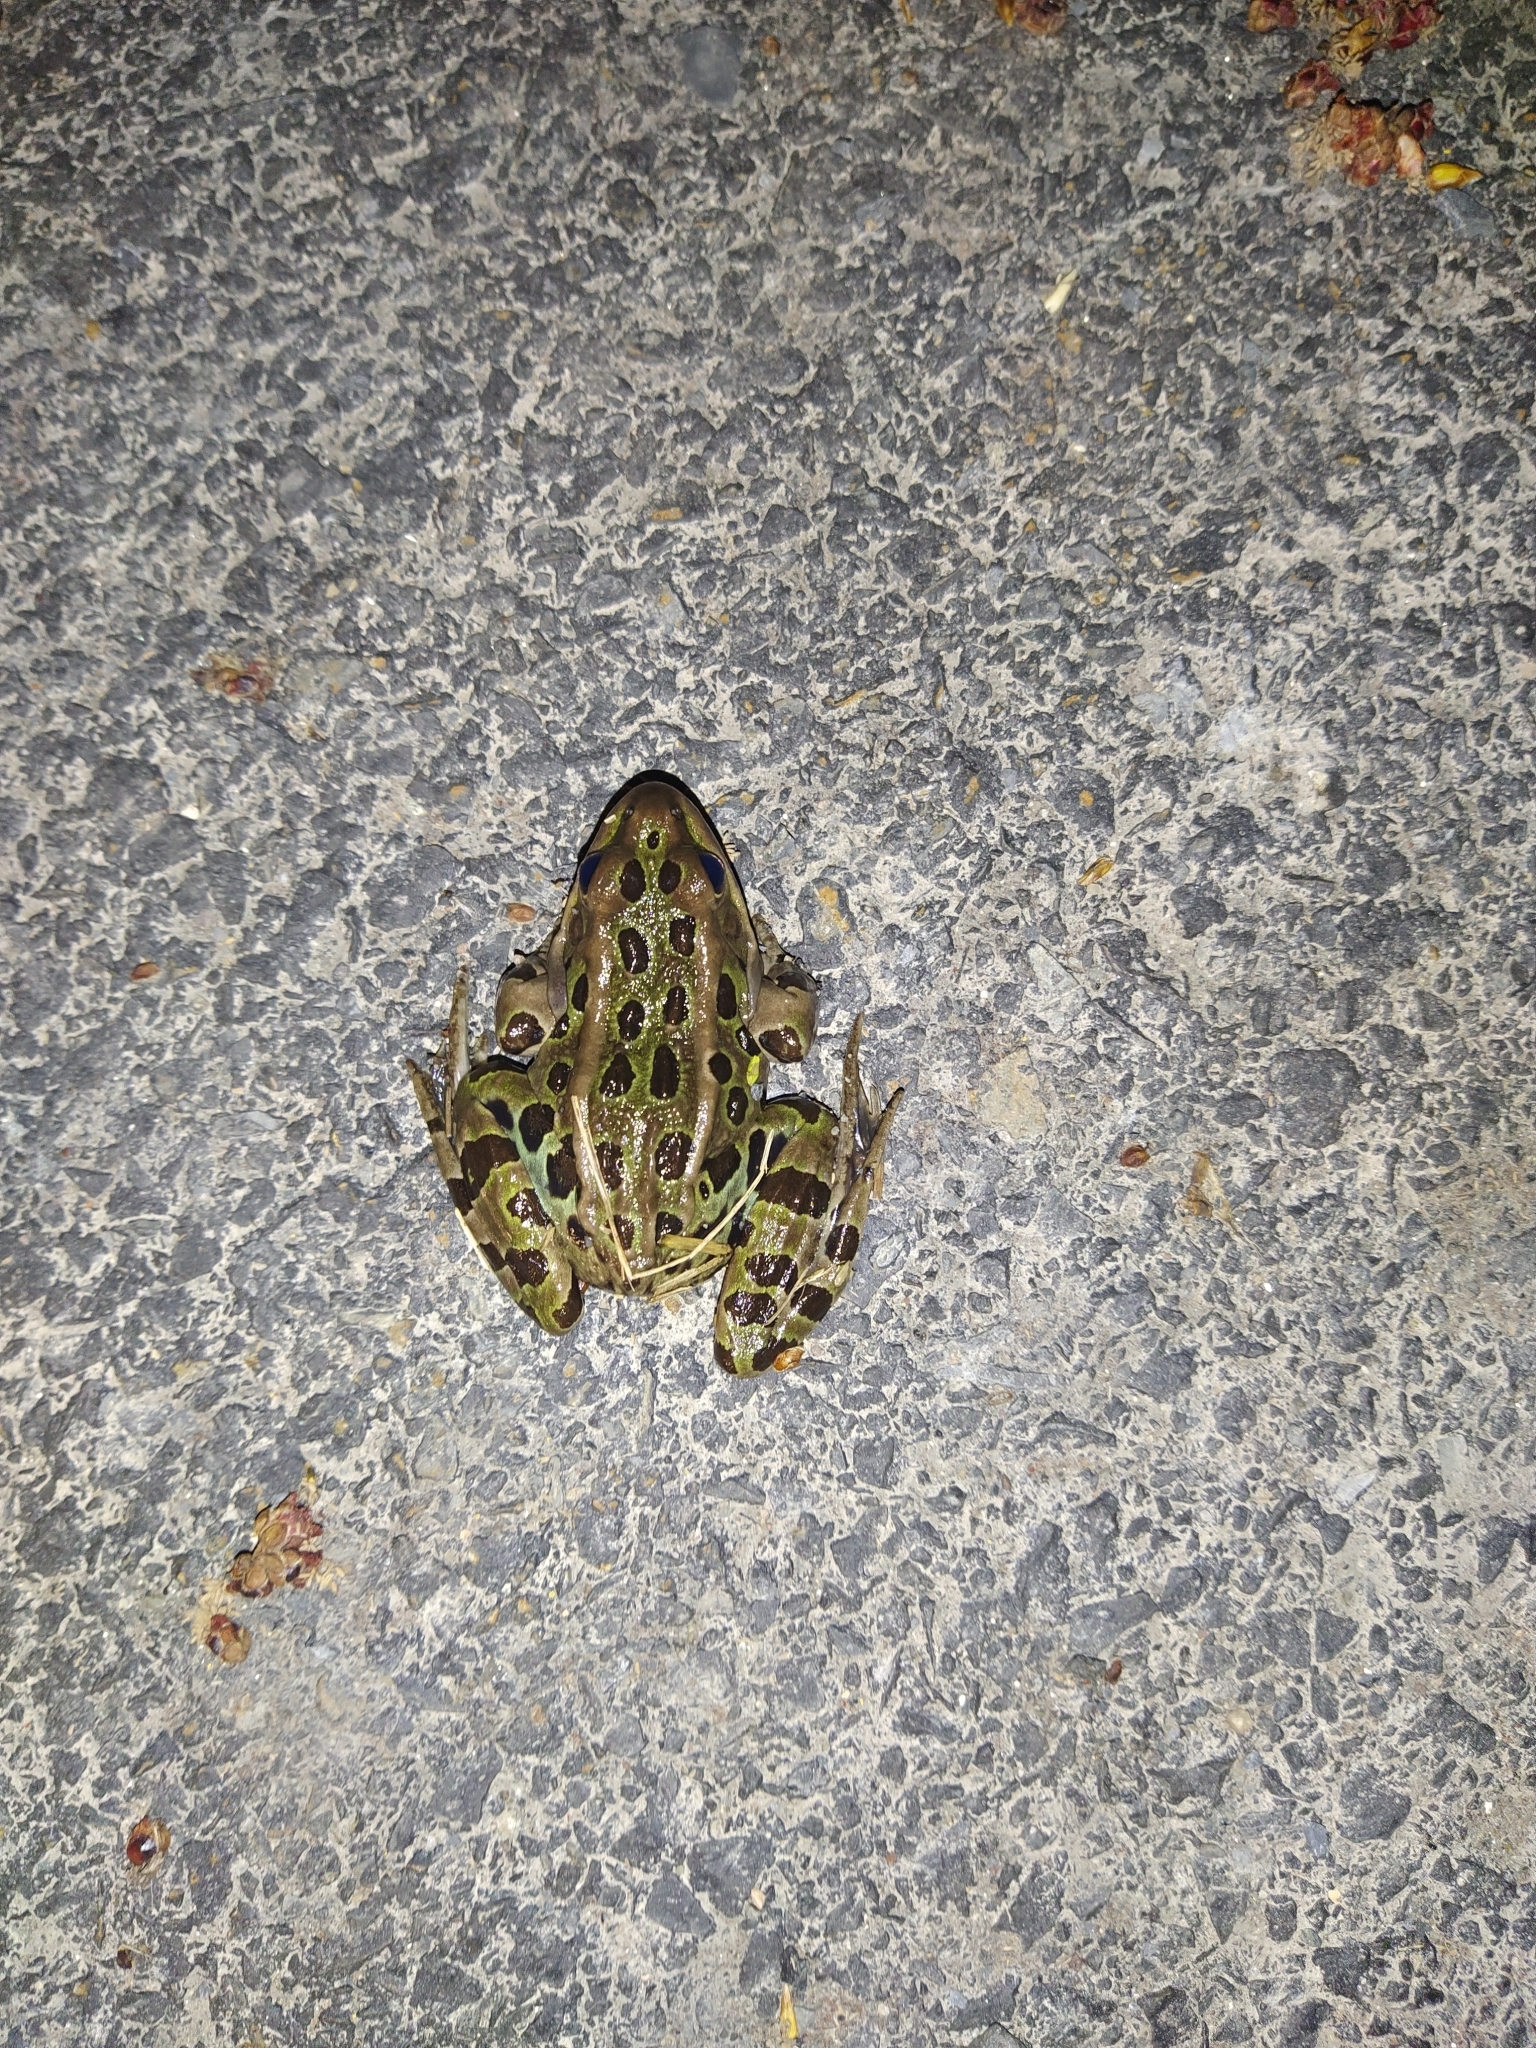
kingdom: Animalia
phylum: Chordata
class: Amphibia
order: Anura
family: Ranidae
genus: Lithobates
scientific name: Lithobates pipiens
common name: Northern leopard frog
